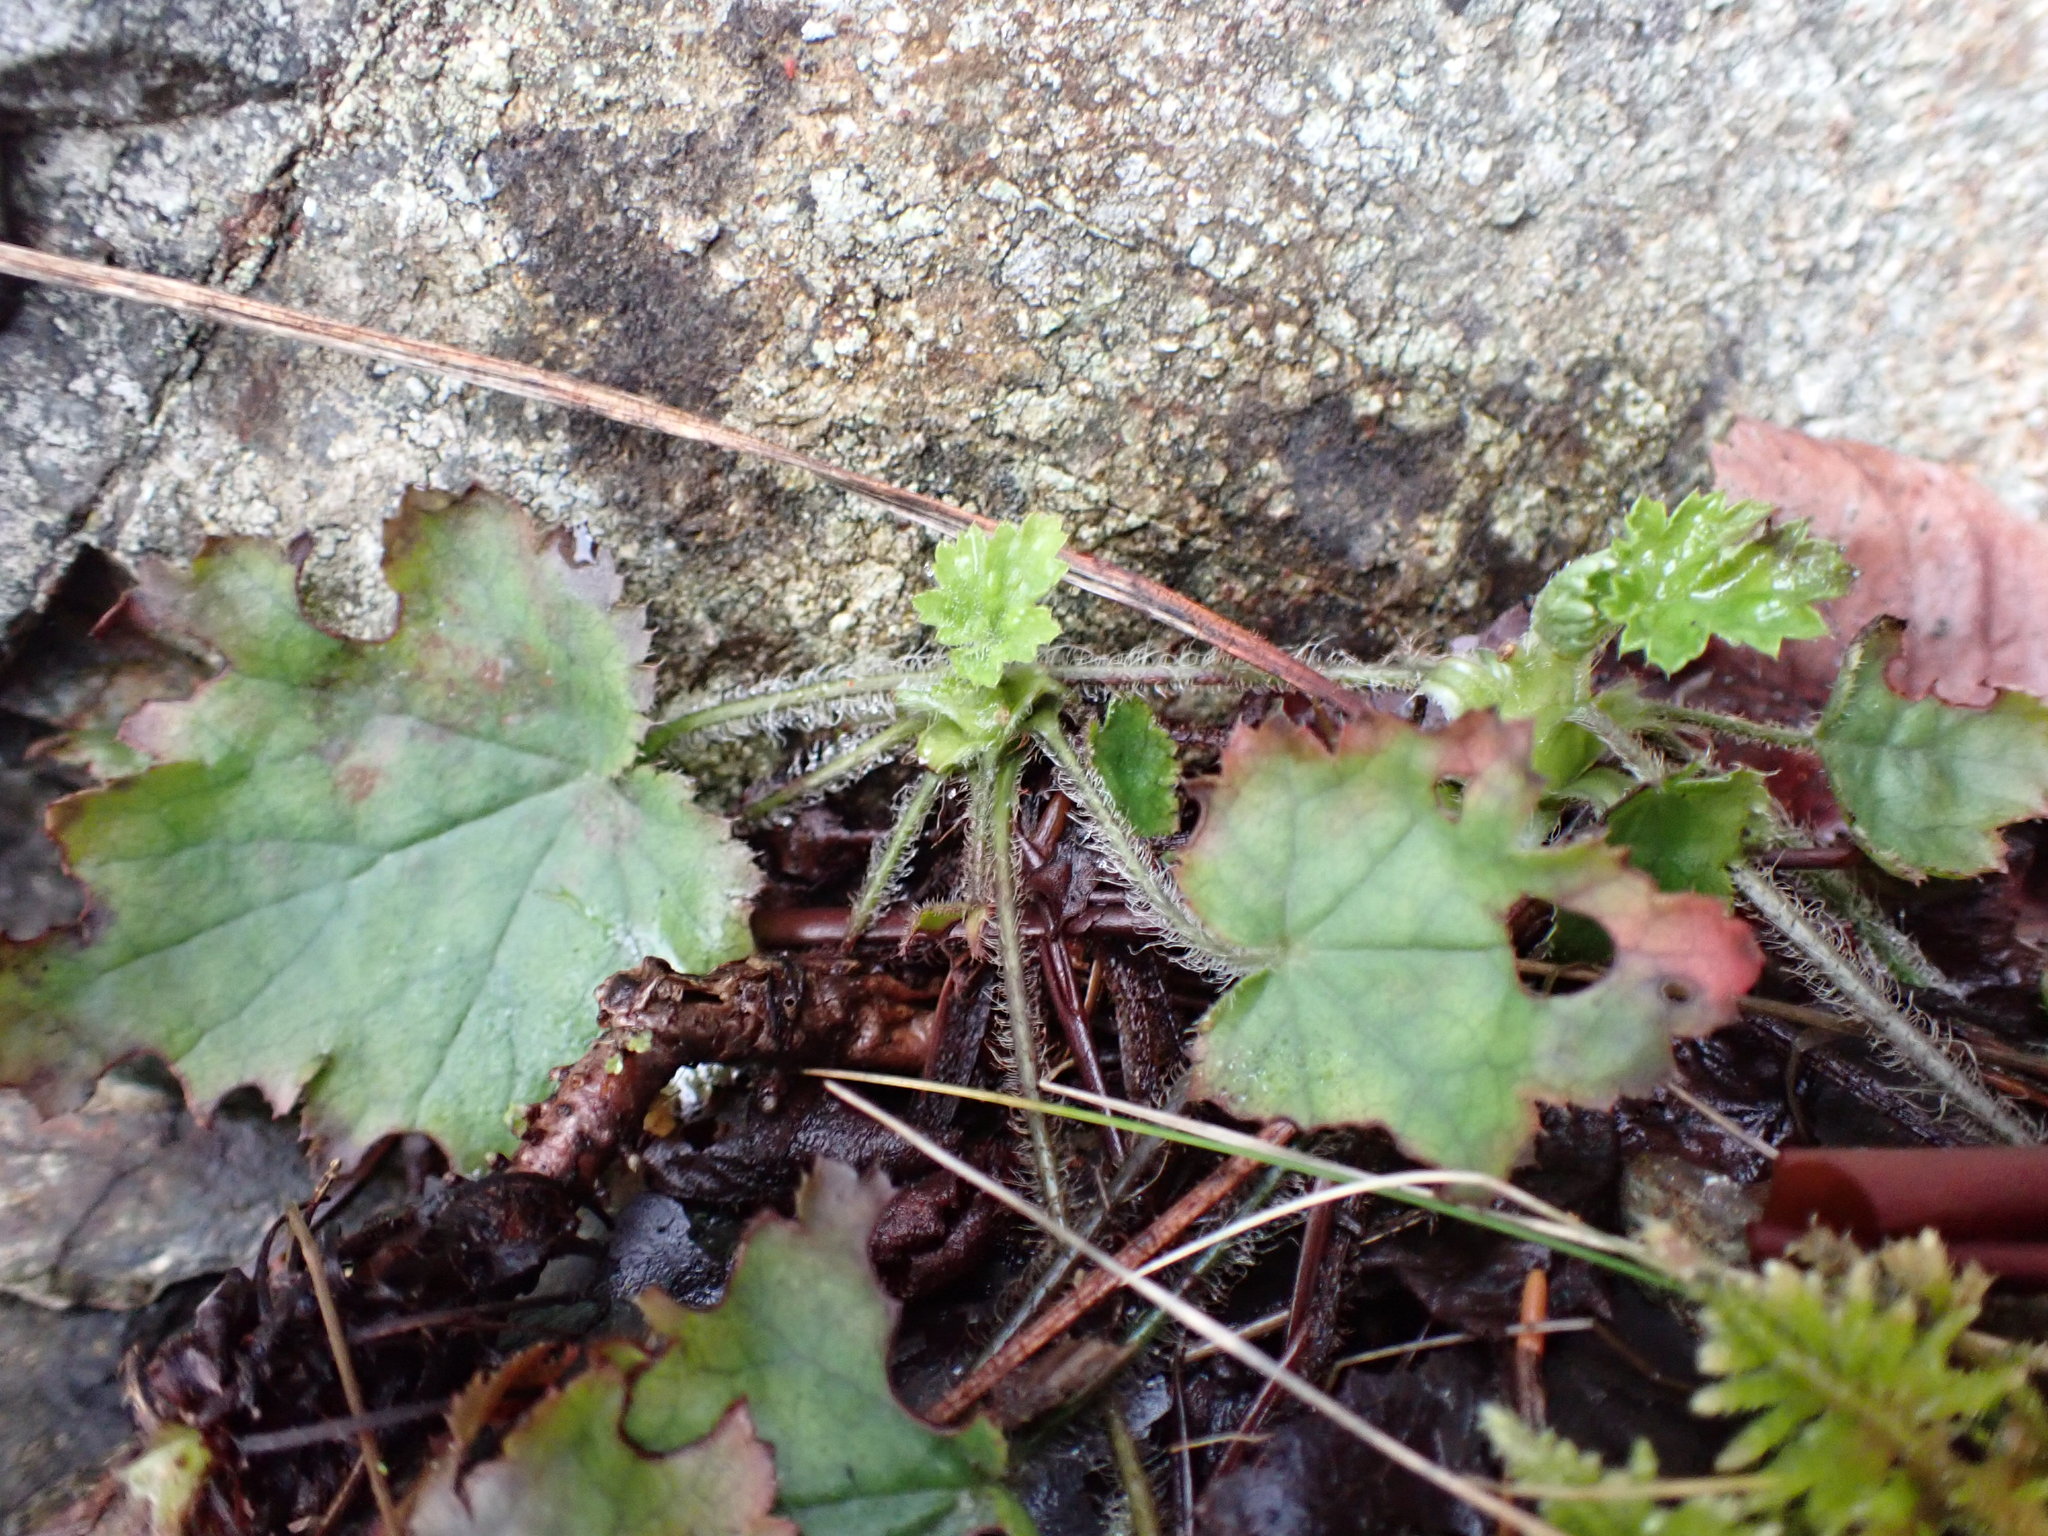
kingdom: Plantae
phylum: Tracheophyta
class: Magnoliopsida
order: Saxifragales
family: Saxifragaceae
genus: Heuchera
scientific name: Heuchera micrantha
